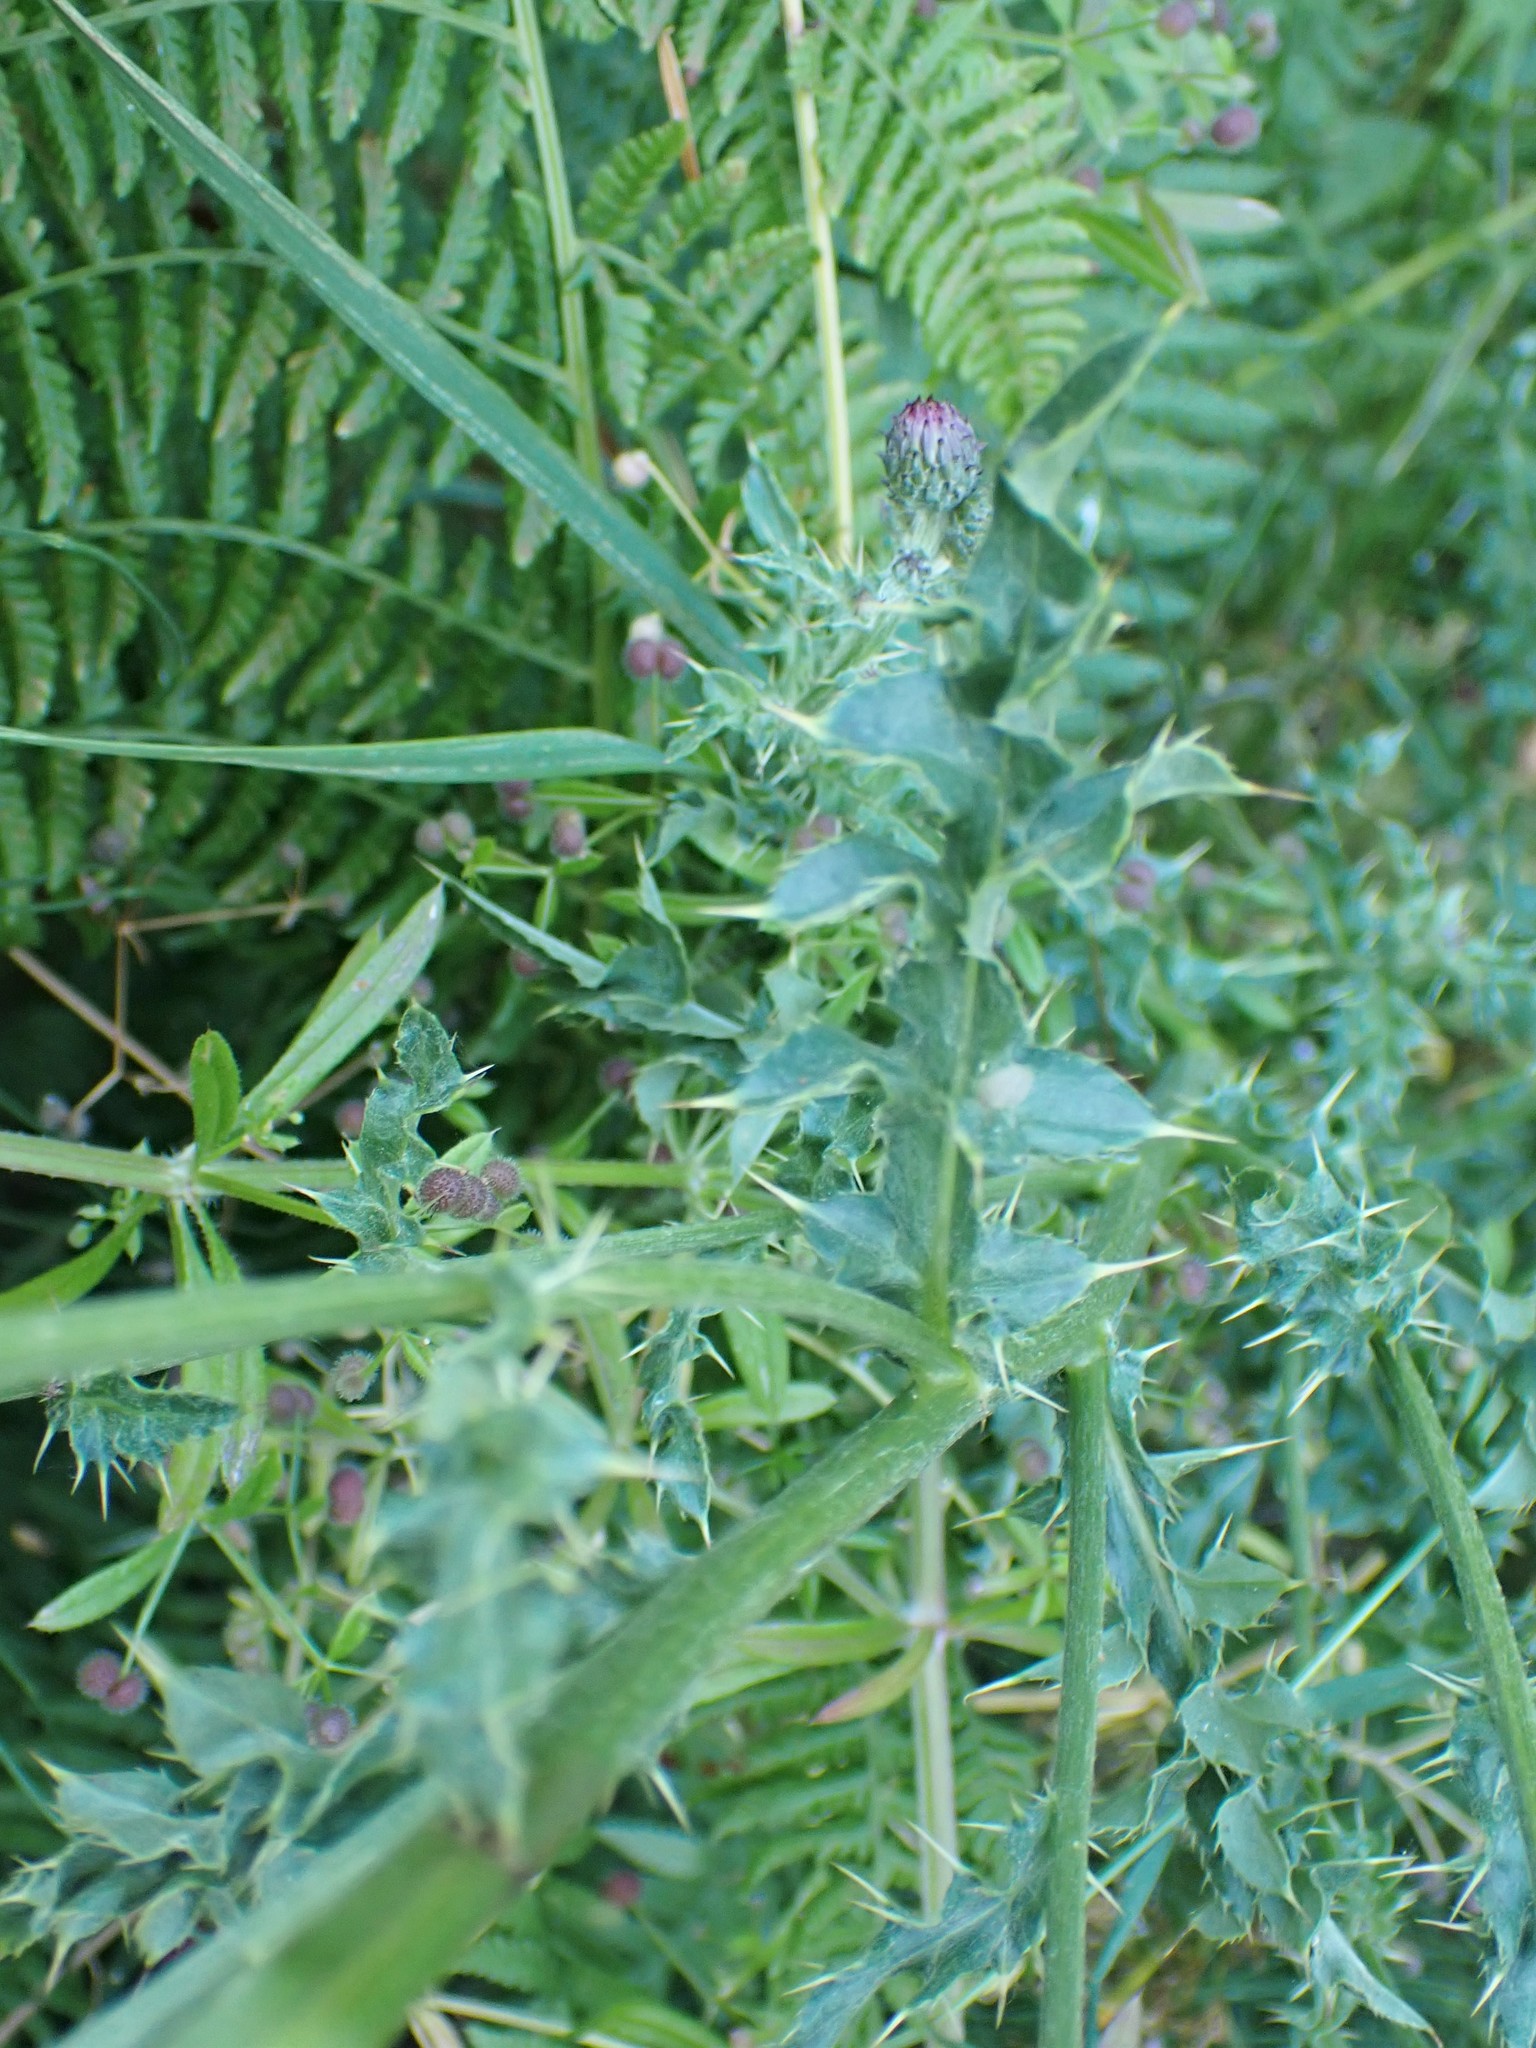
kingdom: Plantae
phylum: Tracheophyta
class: Magnoliopsida
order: Asterales
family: Asteraceae
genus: Cirsium
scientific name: Cirsium arvense
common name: Creeping thistle
